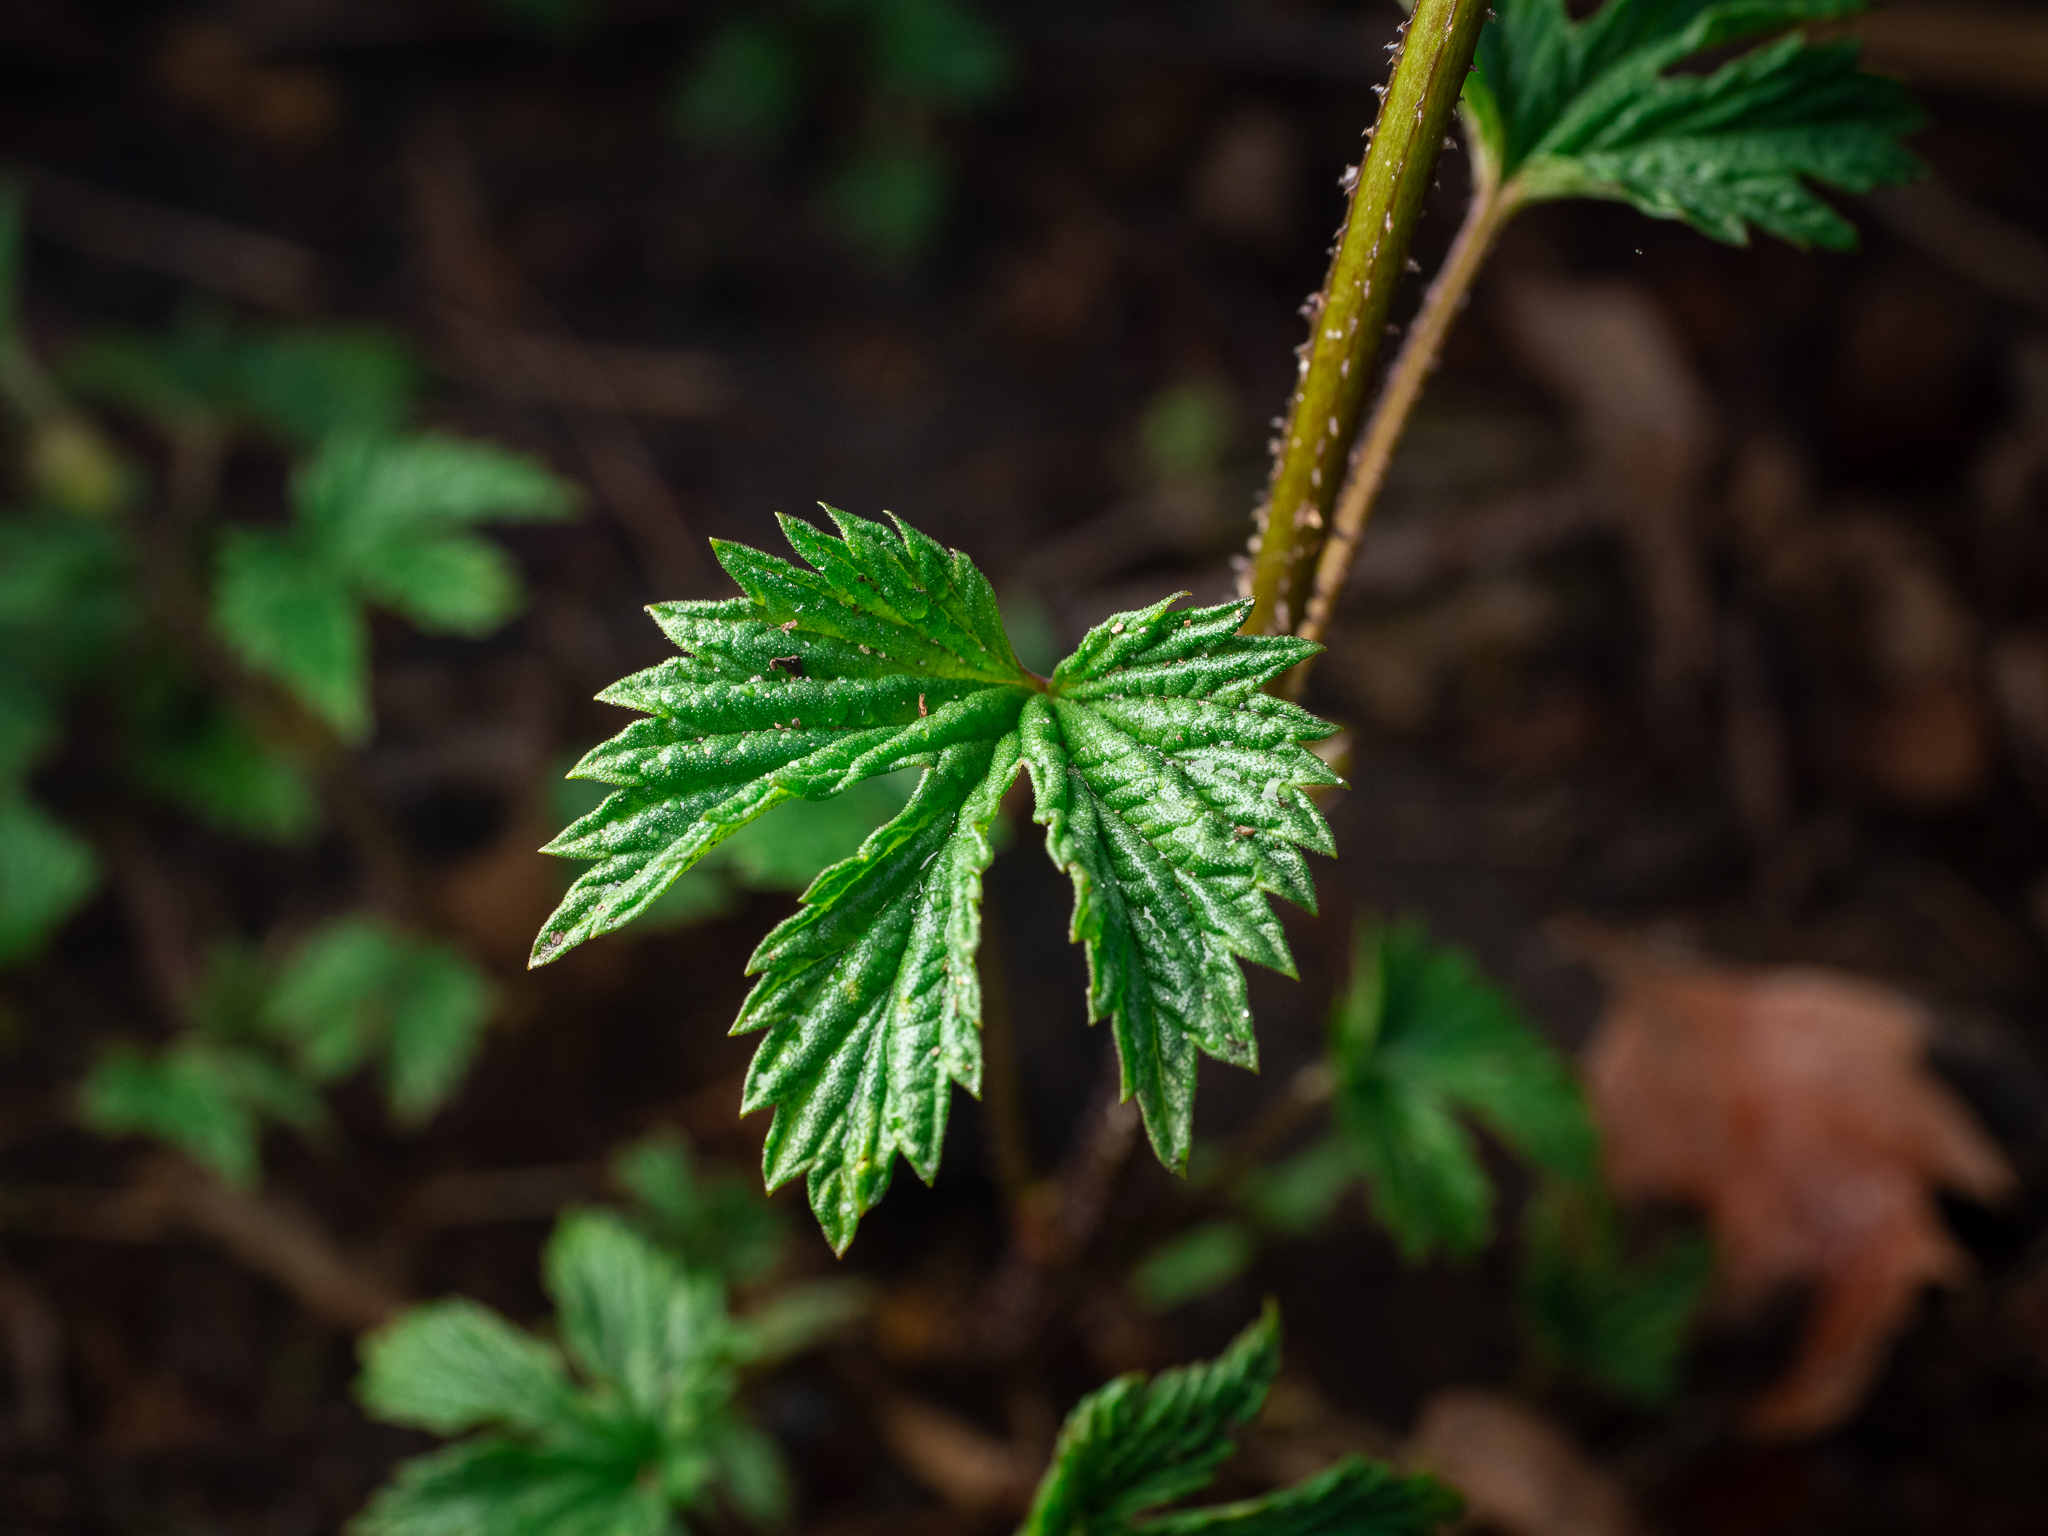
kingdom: Plantae
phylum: Tracheophyta
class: Magnoliopsida
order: Rosales
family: Cannabaceae
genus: Humulus
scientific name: Humulus lupulus
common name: Hop
